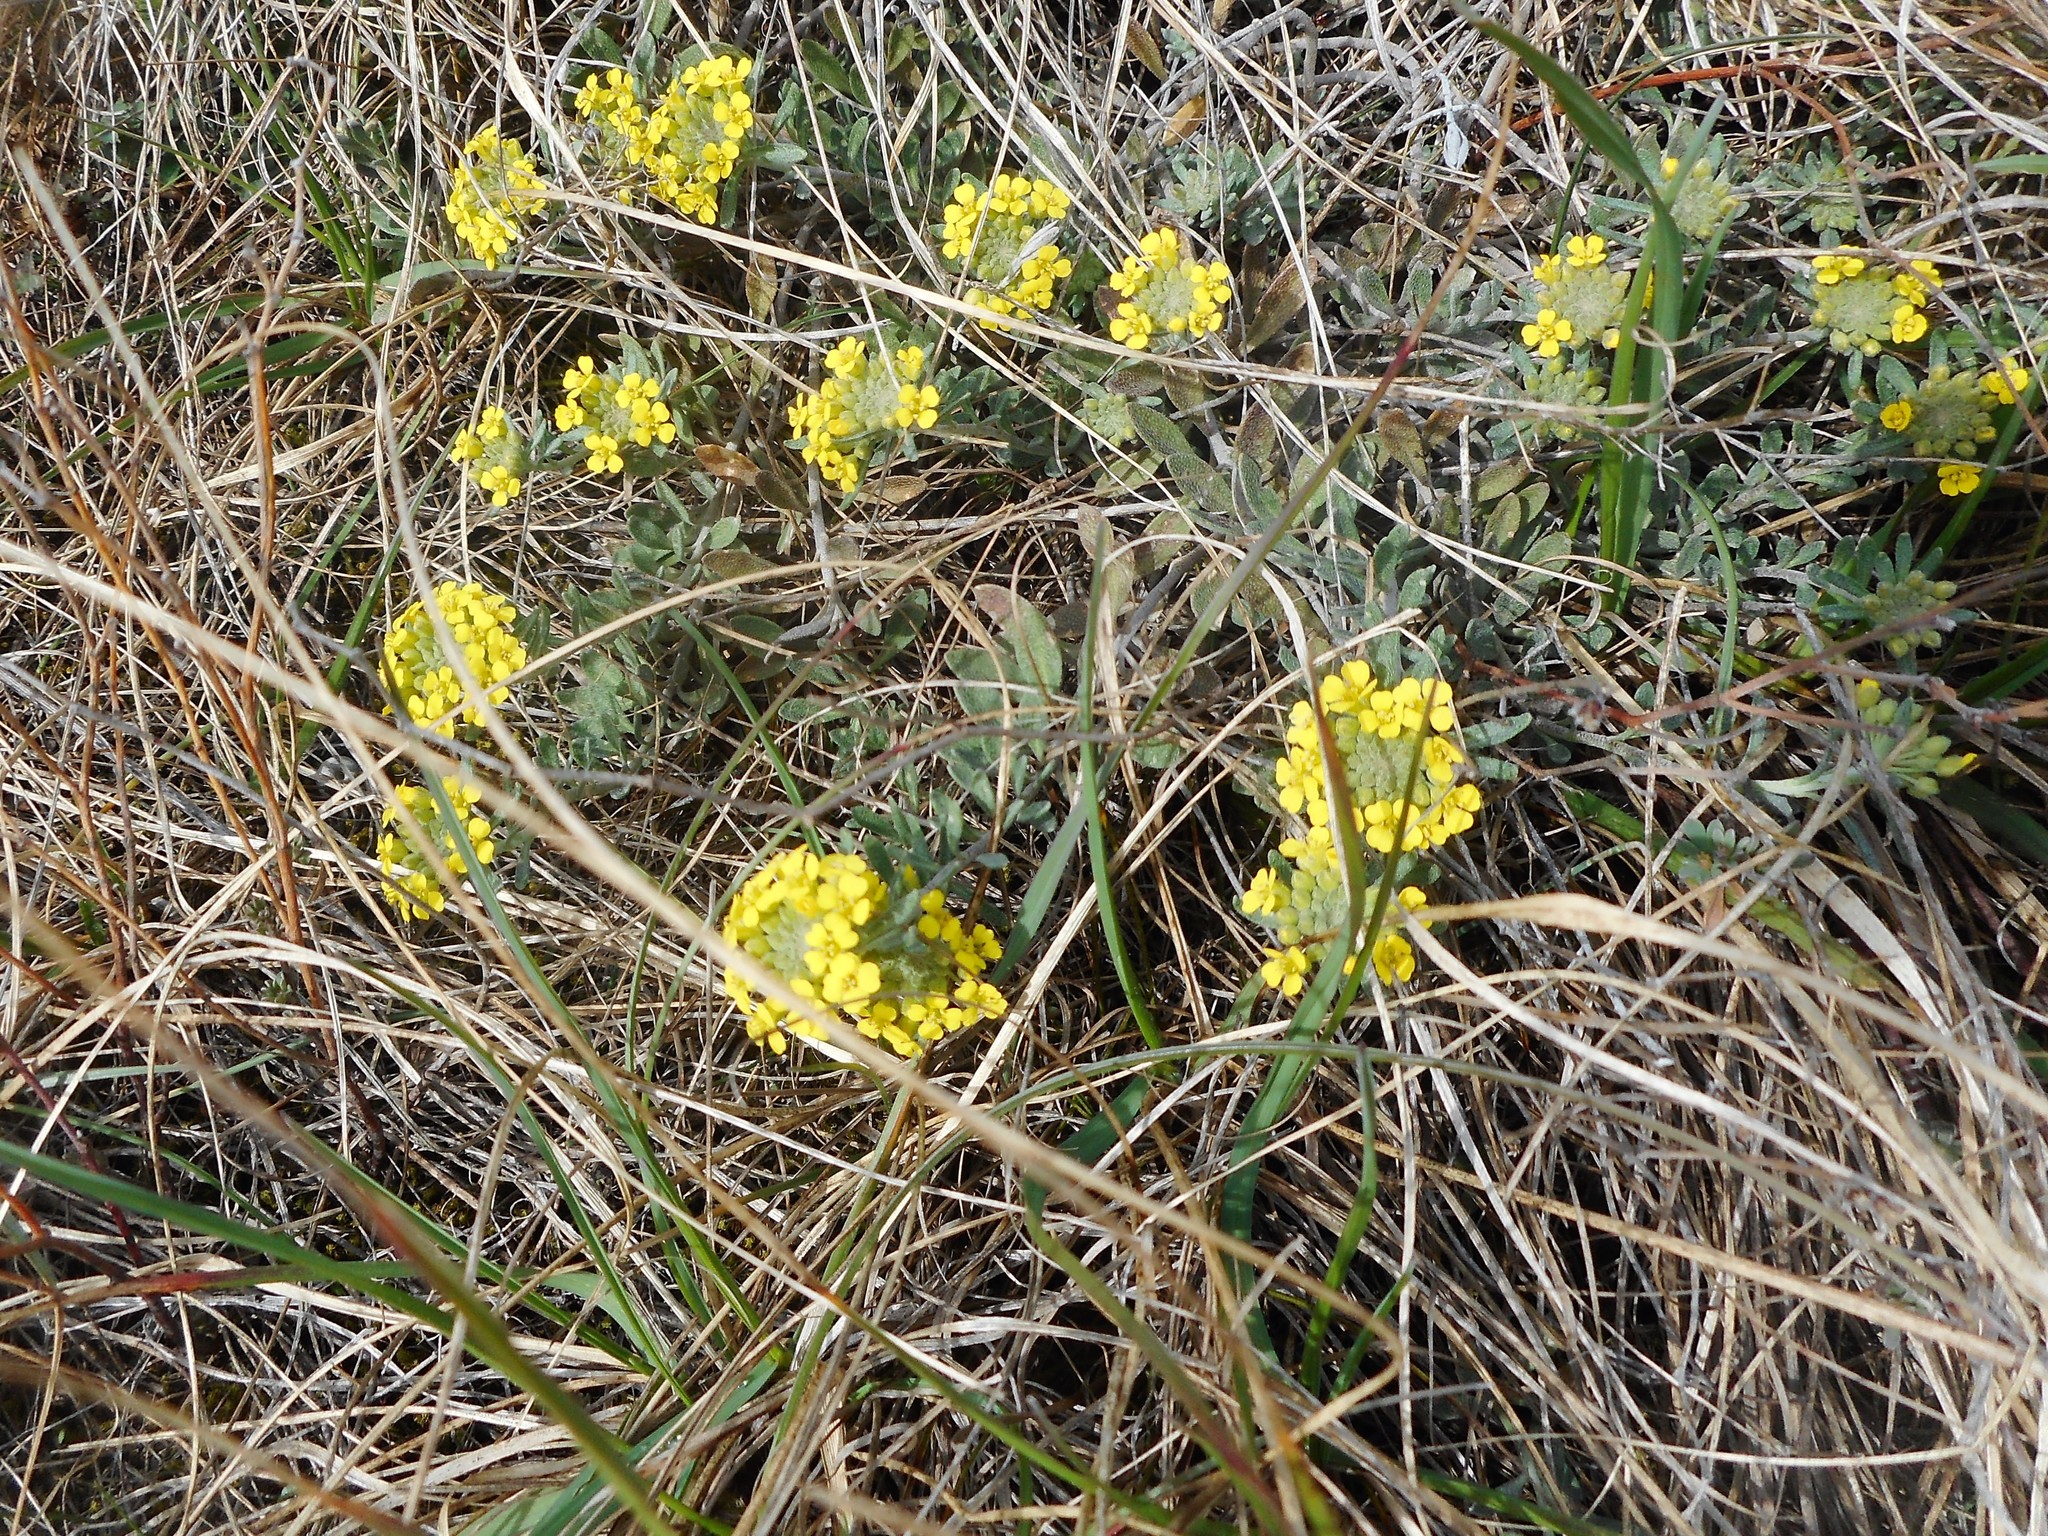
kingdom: Plantae
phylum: Tracheophyta
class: Magnoliopsida
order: Brassicales
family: Brassicaceae
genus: Alyssum
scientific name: Alyssum gmelinii
